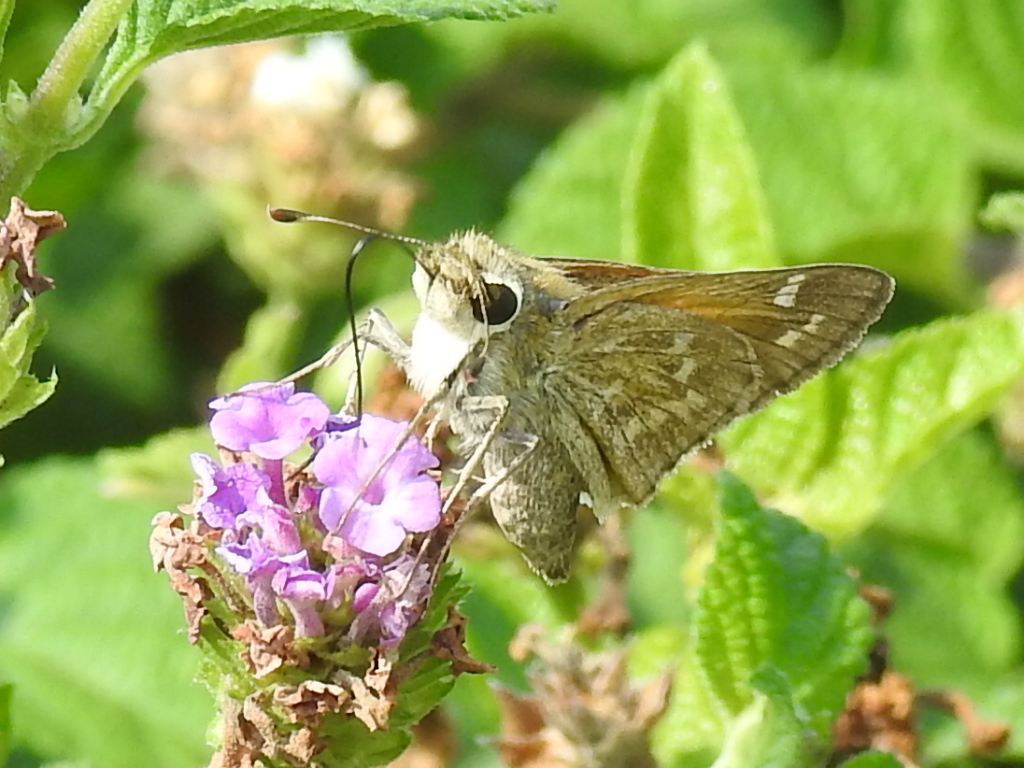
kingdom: Animalia
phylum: Arthropoda
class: Insecta
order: Lepidoptera
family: Hesperiidae
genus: Atalopedes
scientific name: Atalopedes
